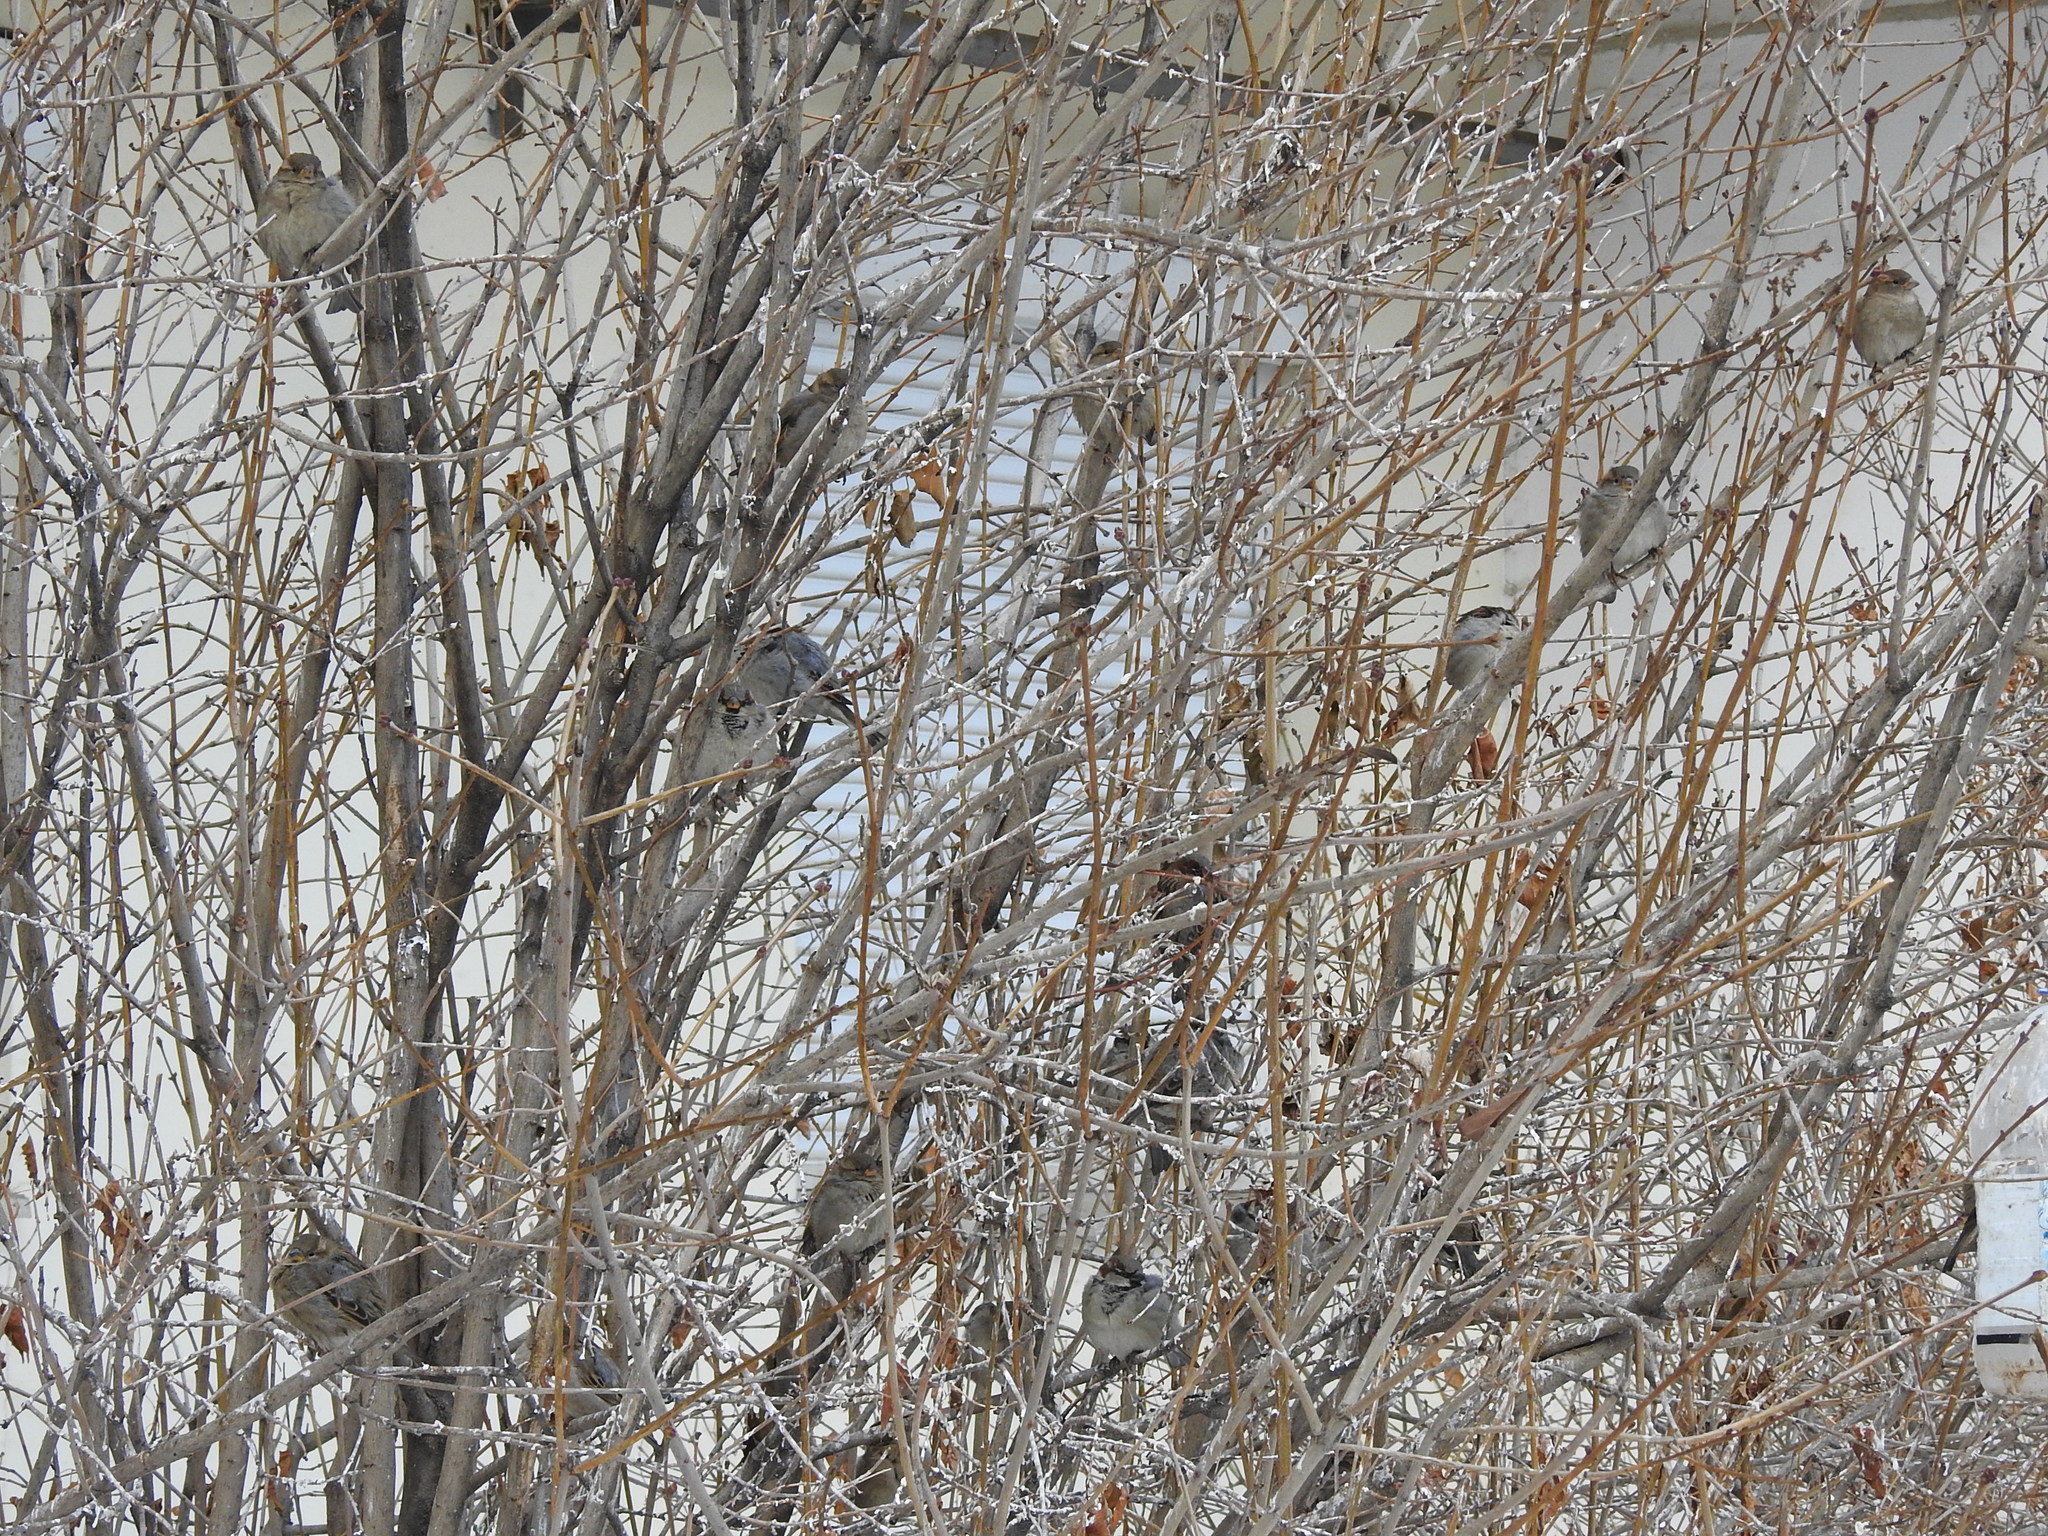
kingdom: Animalia
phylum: Chordata
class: Aves
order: Passeriformes
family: Passeridae
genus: Passer
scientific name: Passer domesticus
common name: House sparrow
